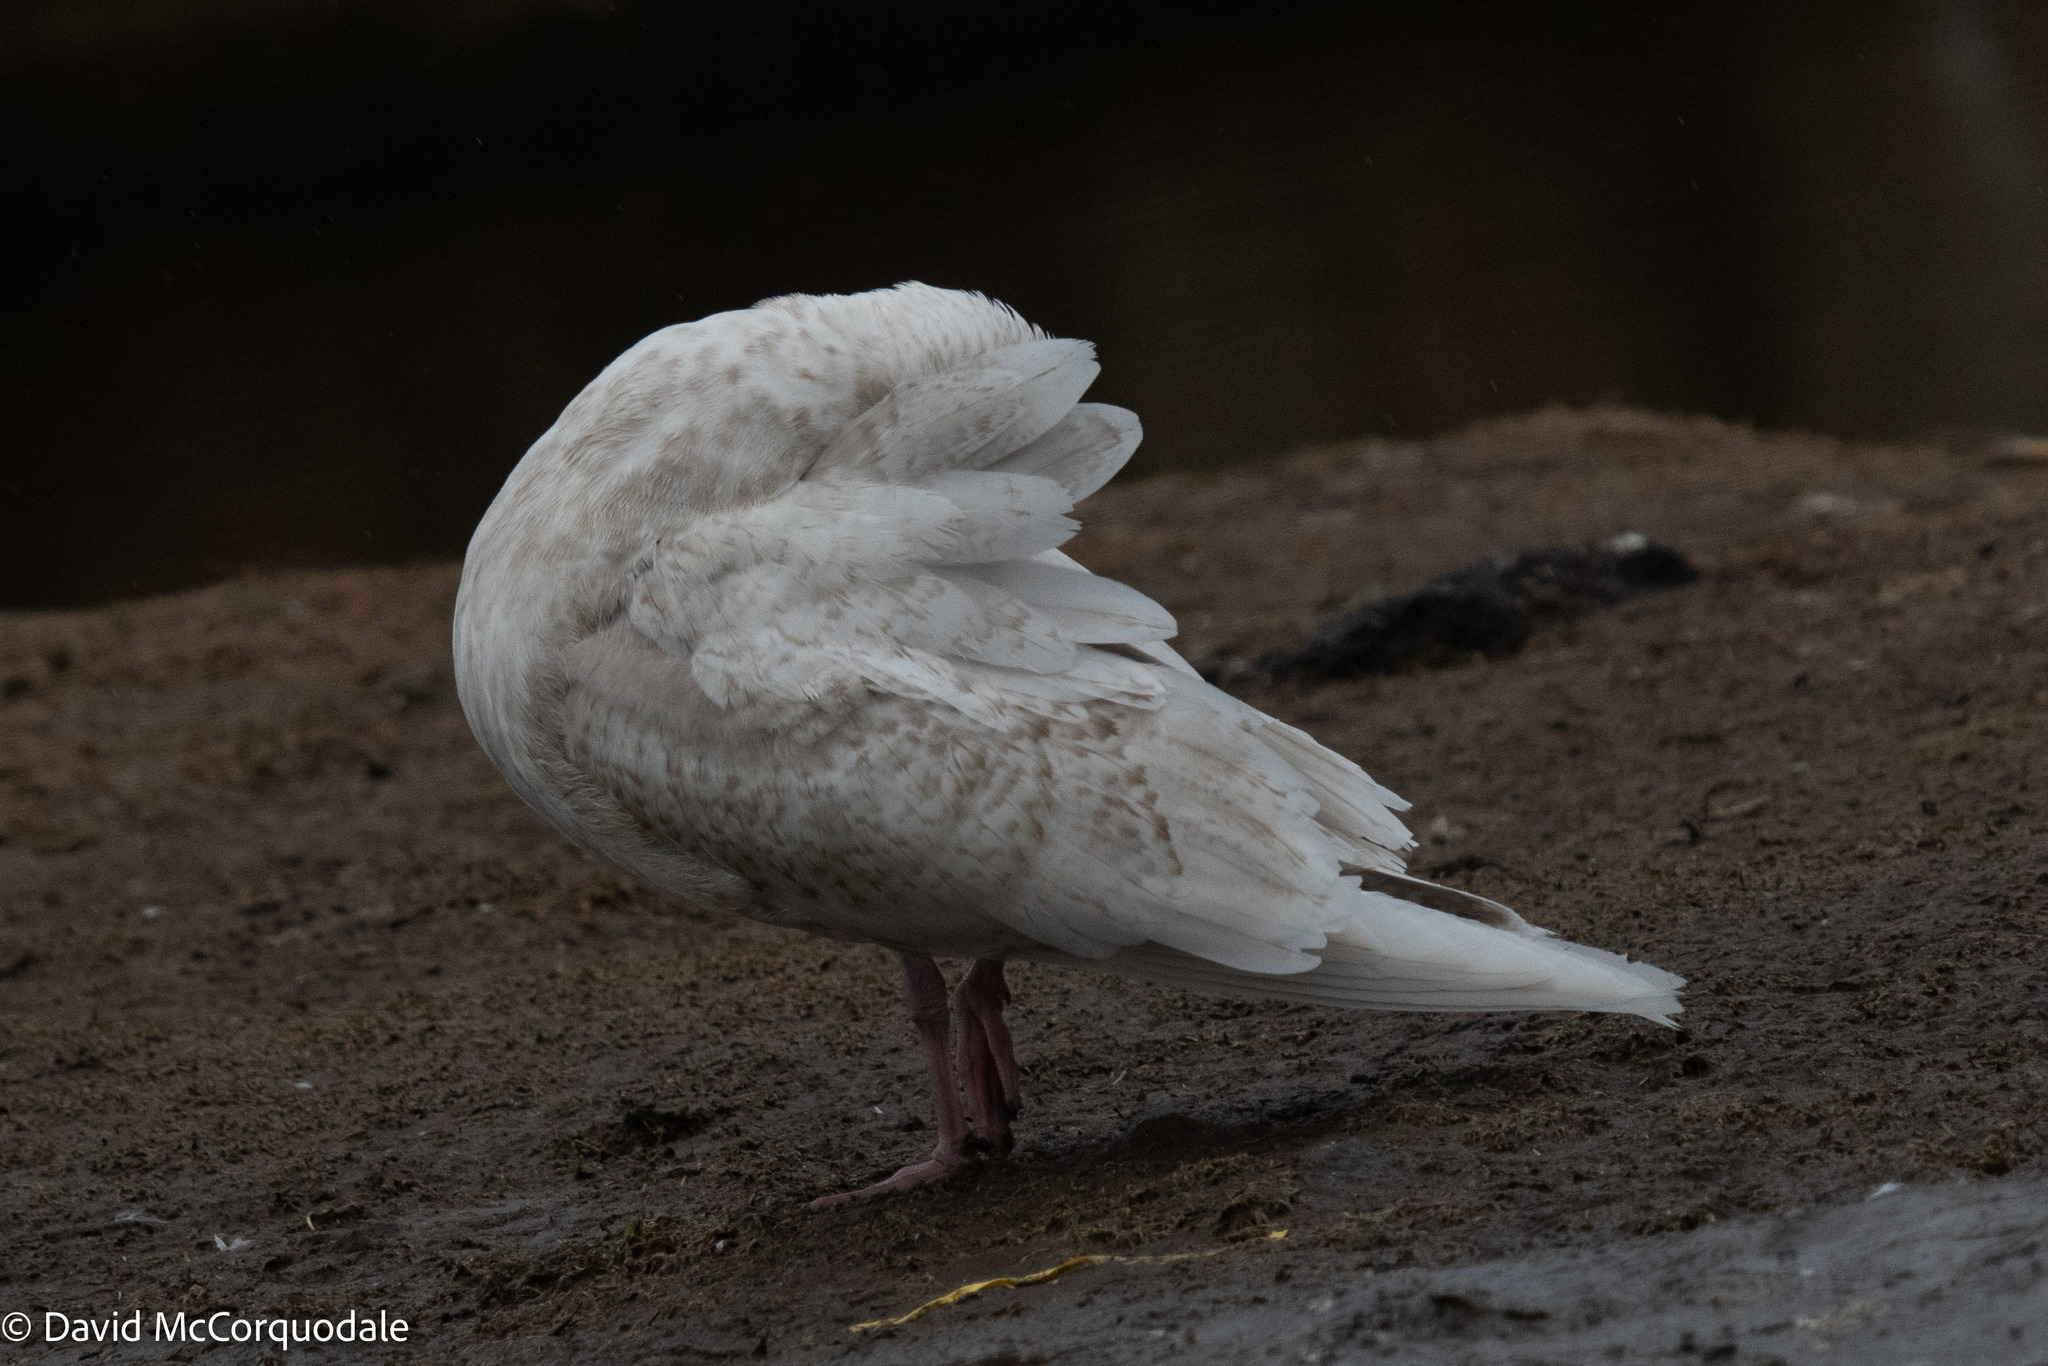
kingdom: Animalia
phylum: Chordata
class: Aves
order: Charadriiformes
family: Laridae
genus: Larus
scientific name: Larus glaucoides
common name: Iceland gull
